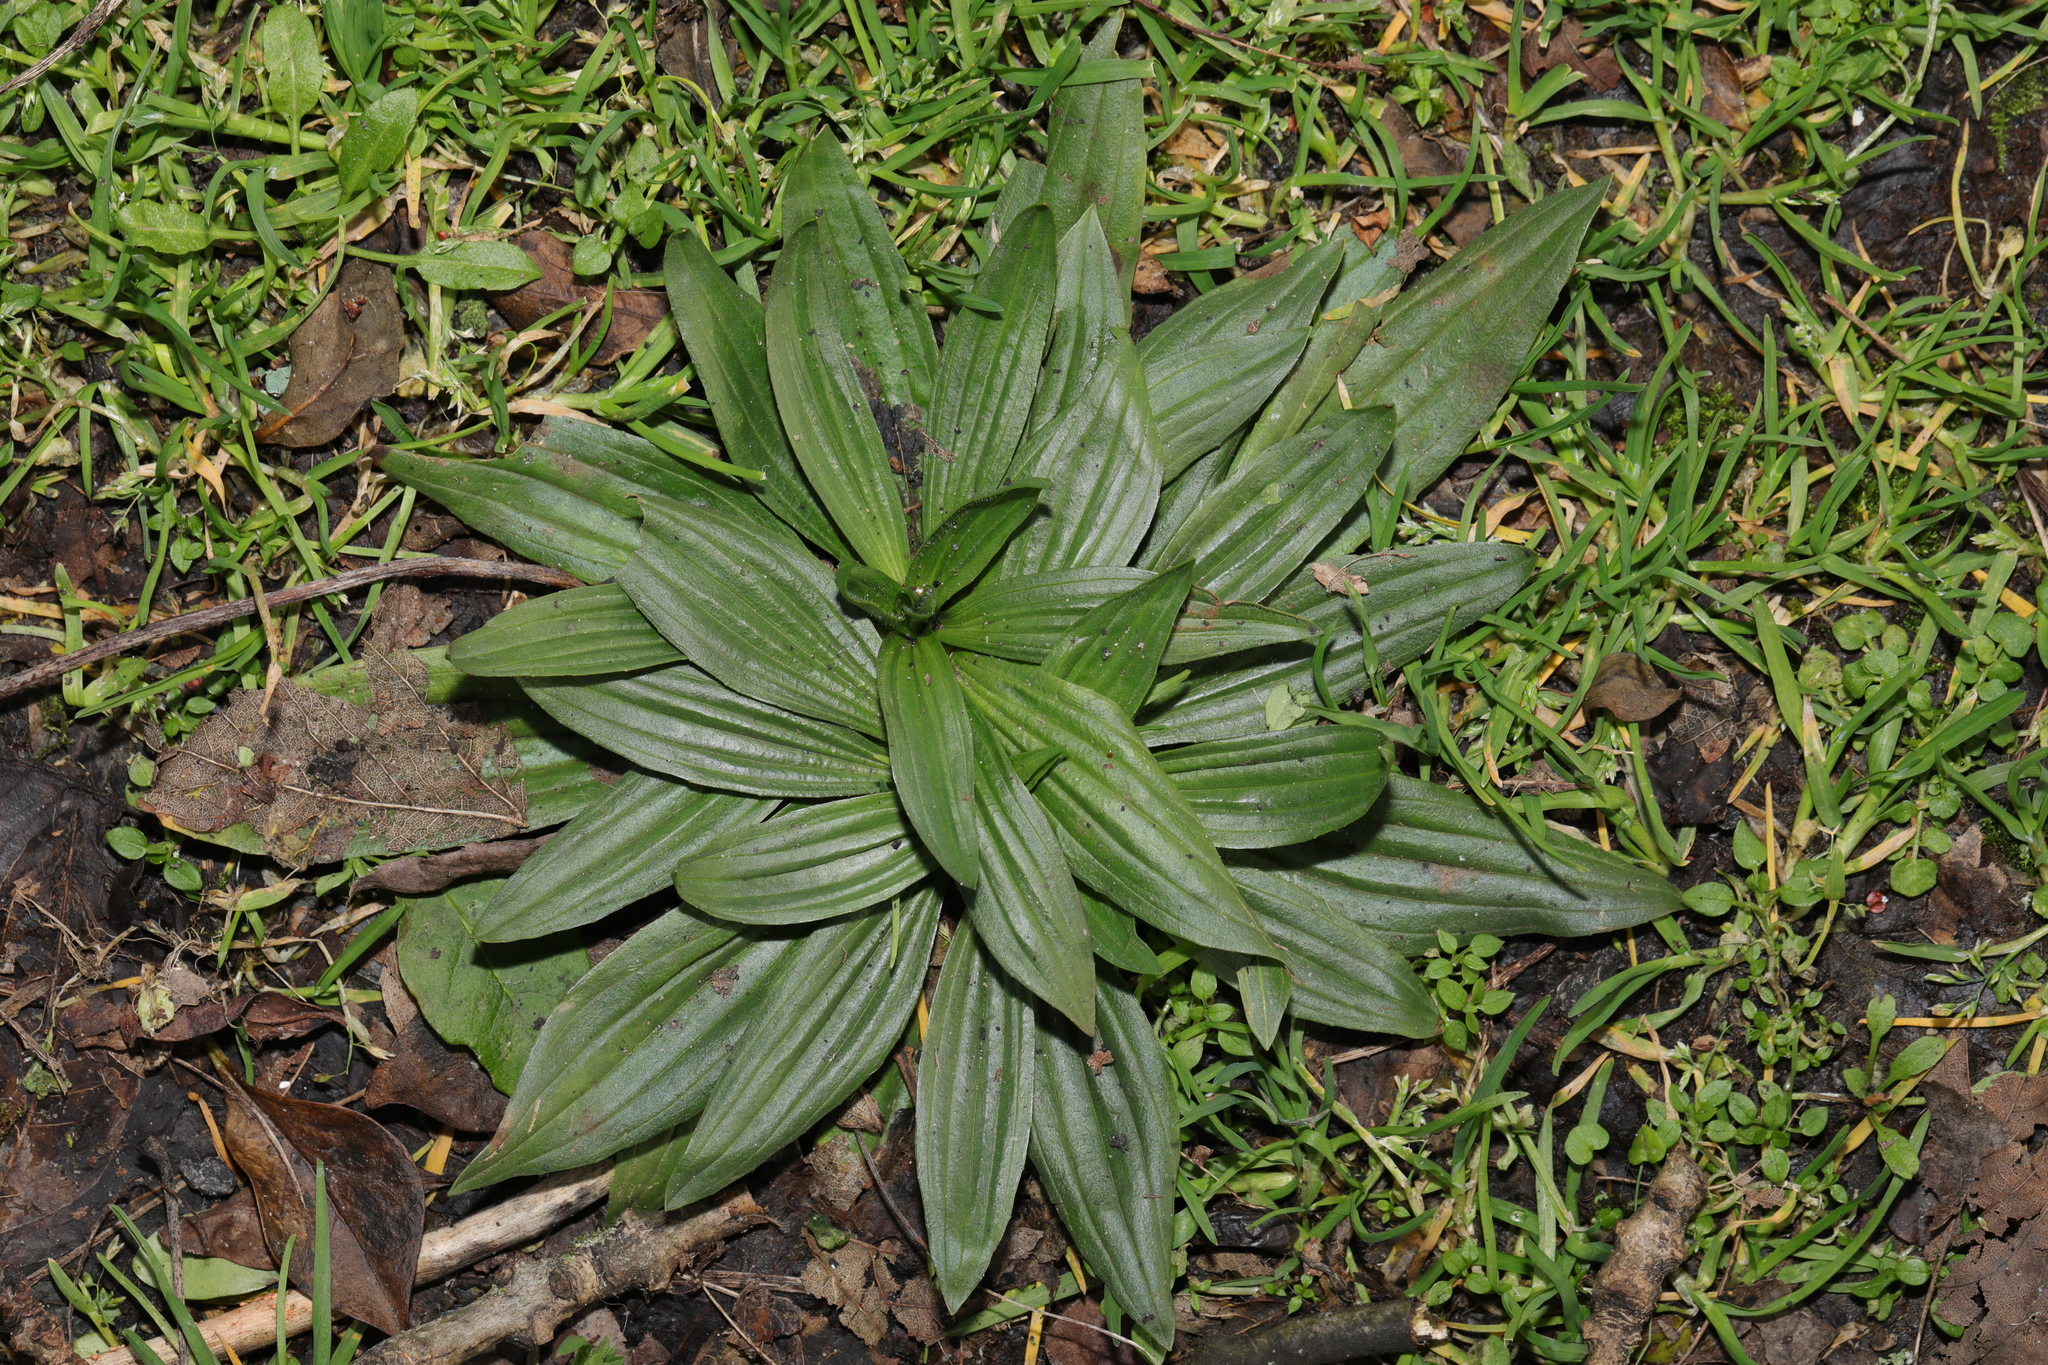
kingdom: Plantae
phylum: Tracheophyta
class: Magnoliopsida
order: Lamiales
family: Plantaginaceae
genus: Plantago
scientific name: Plantago lanceolata
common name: Ribwort plantain
